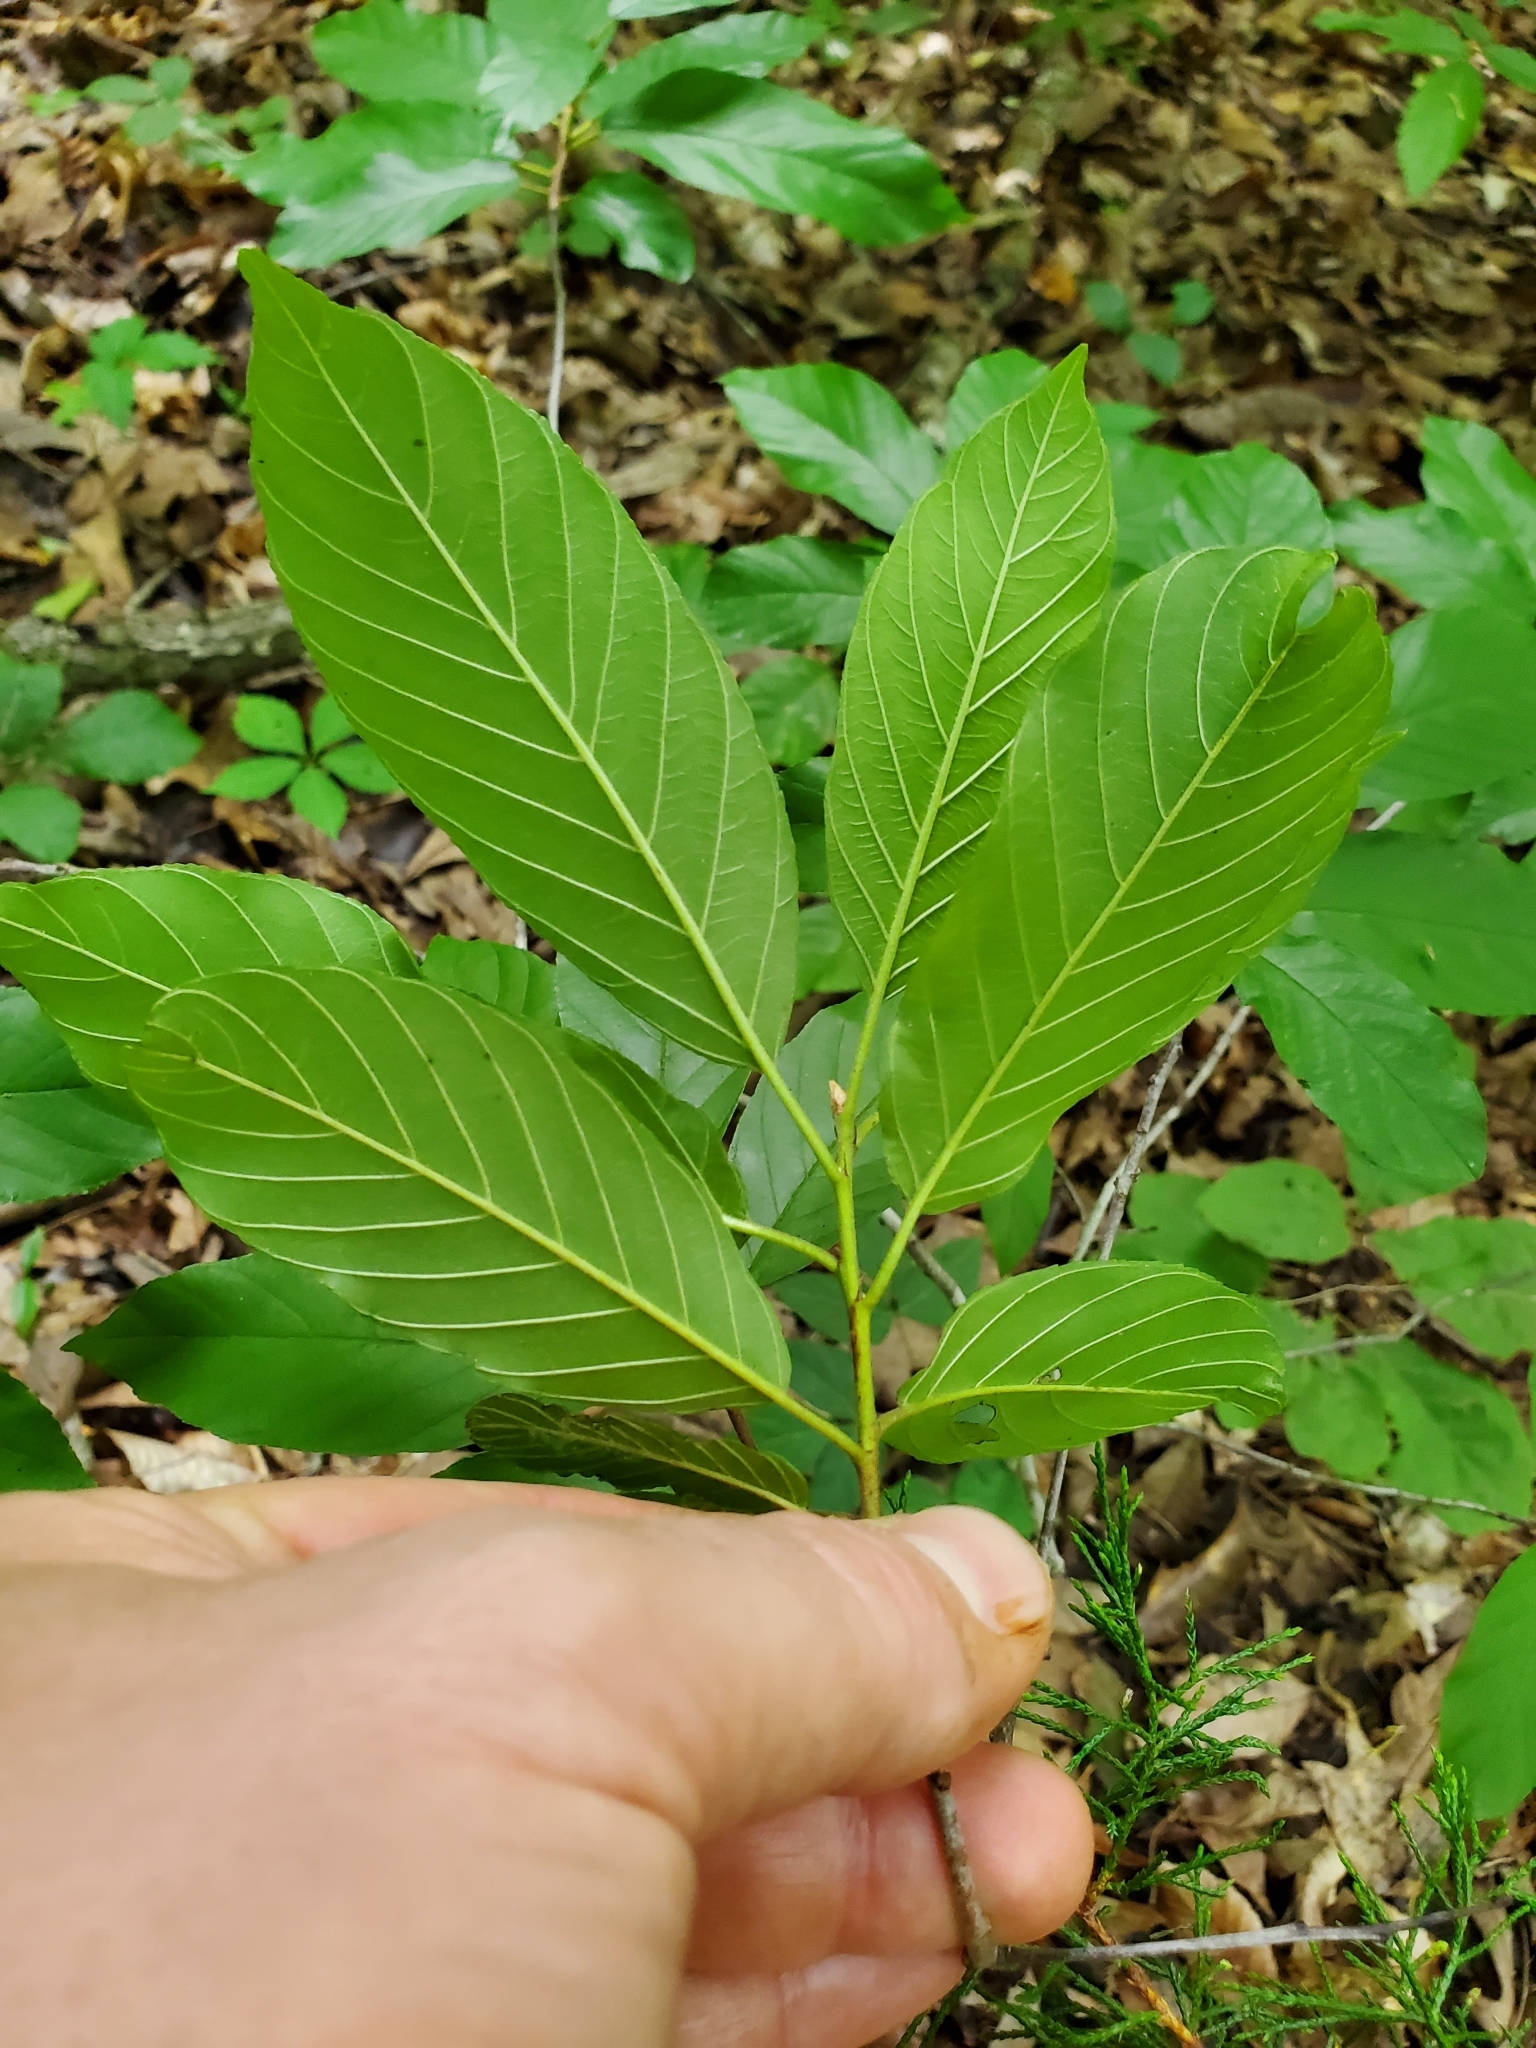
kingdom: Plantae
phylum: Tracheophyta
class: Magnoliopsida
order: Rosales
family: Rhamnaceae
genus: Frangula
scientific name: Frangula caroliniana
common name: Carolina buckthorn
